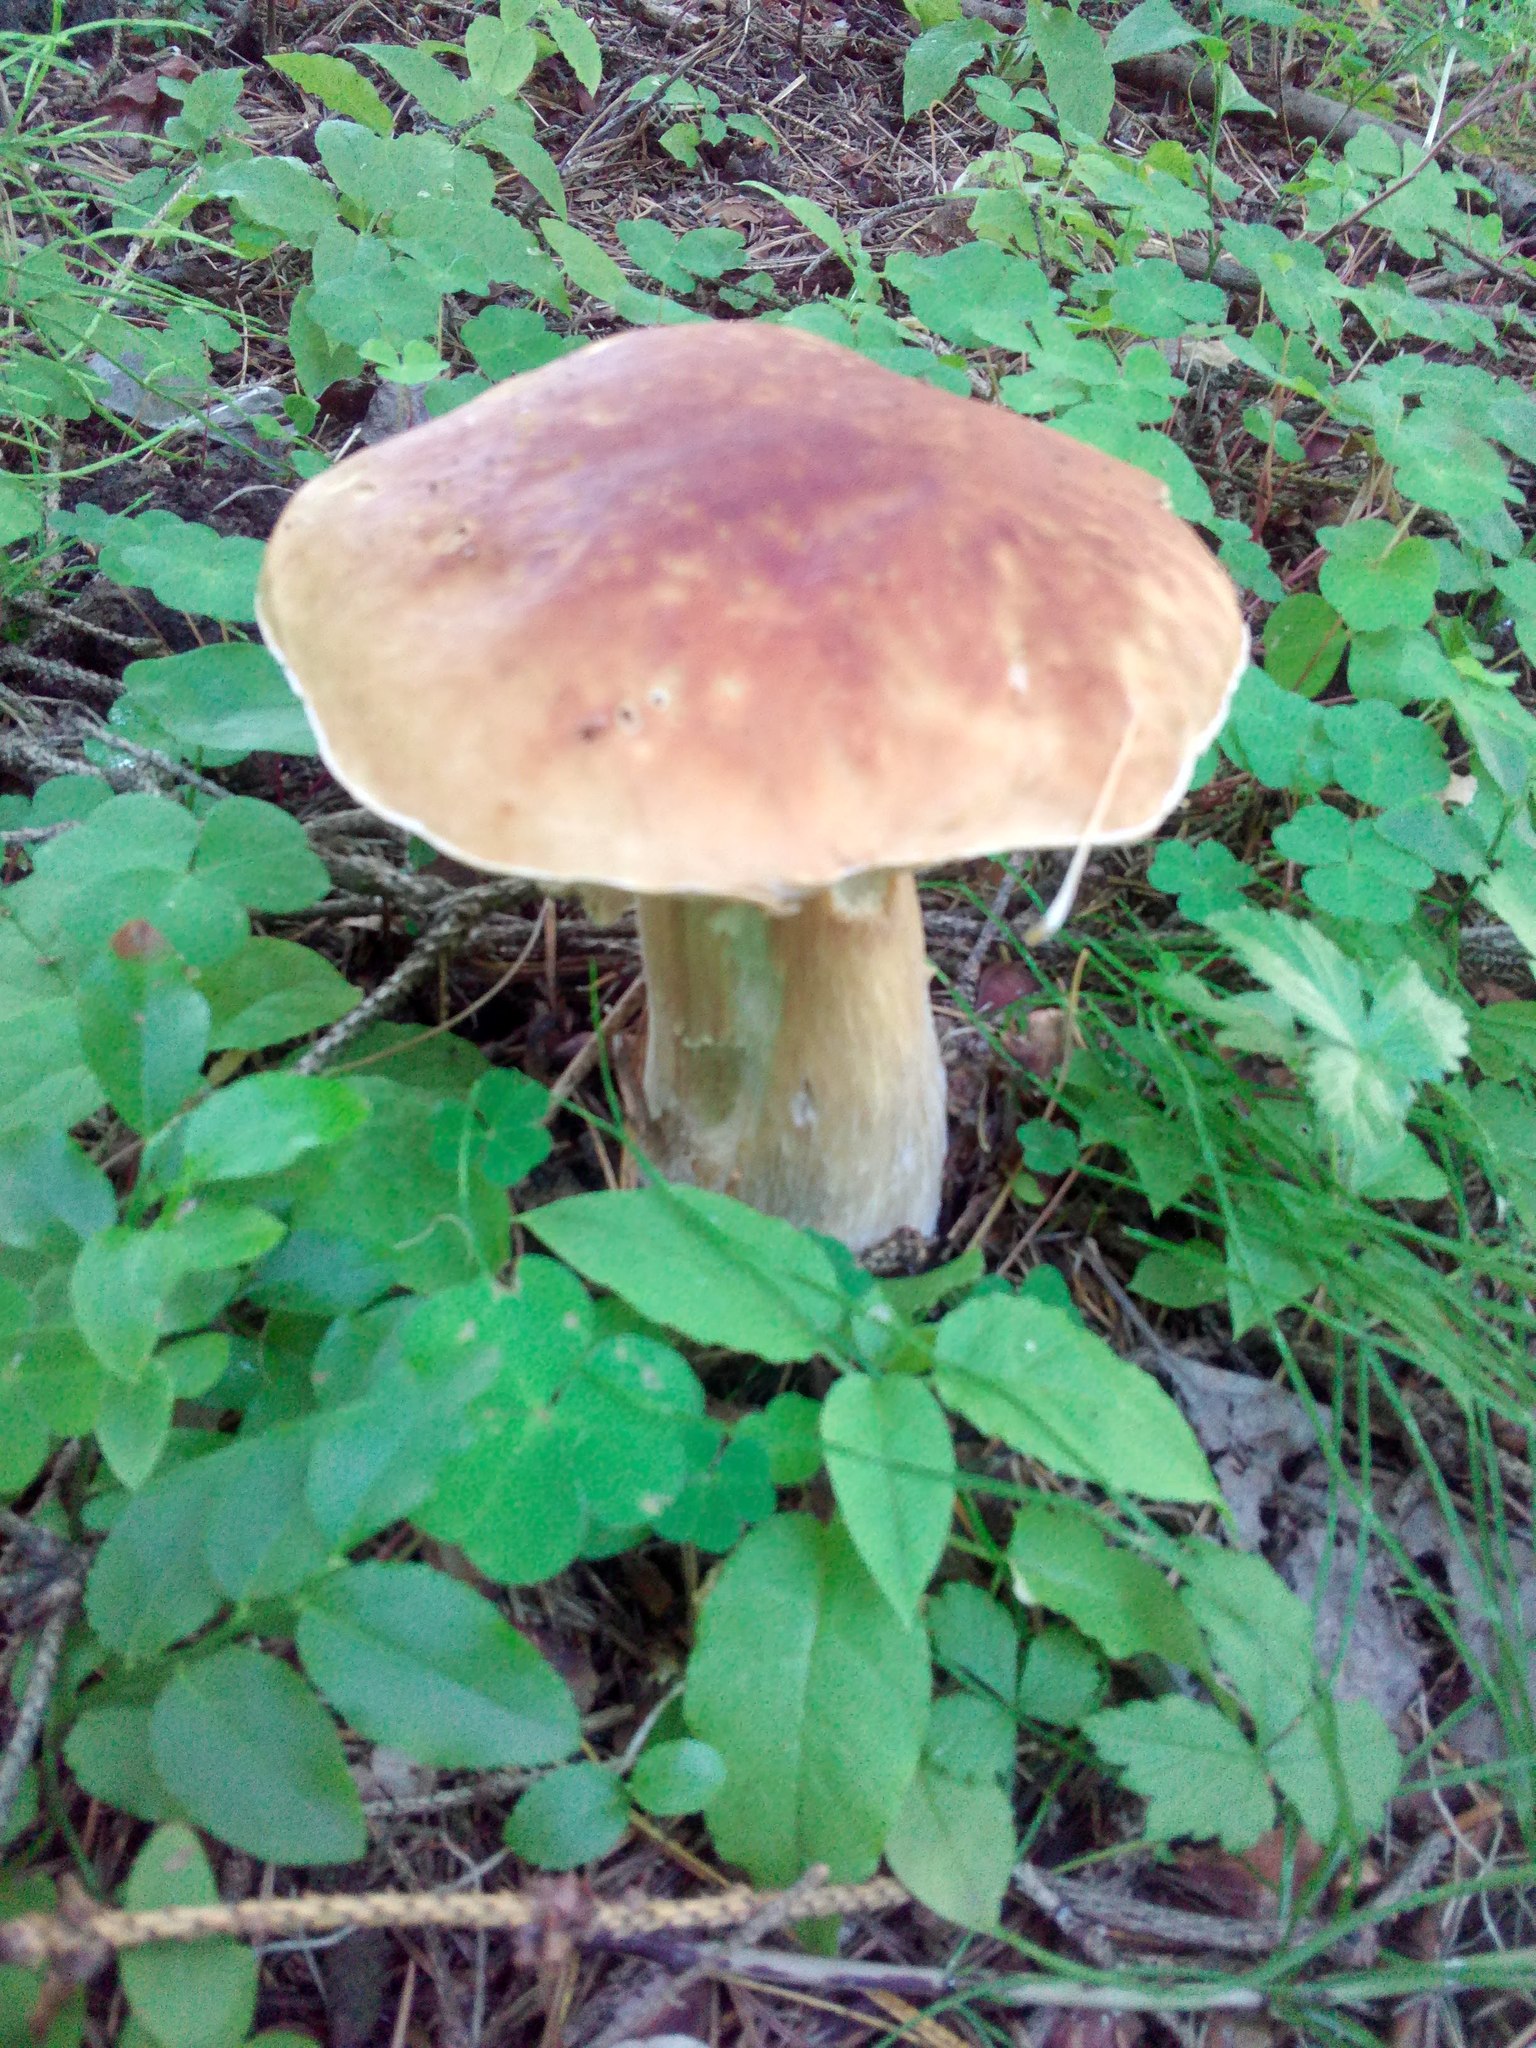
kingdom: Fungi
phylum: Basidiomycota
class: Agaricomycetes
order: Boletales
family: Boletaceae
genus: Boletus
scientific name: Boletus edulis
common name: Cep
